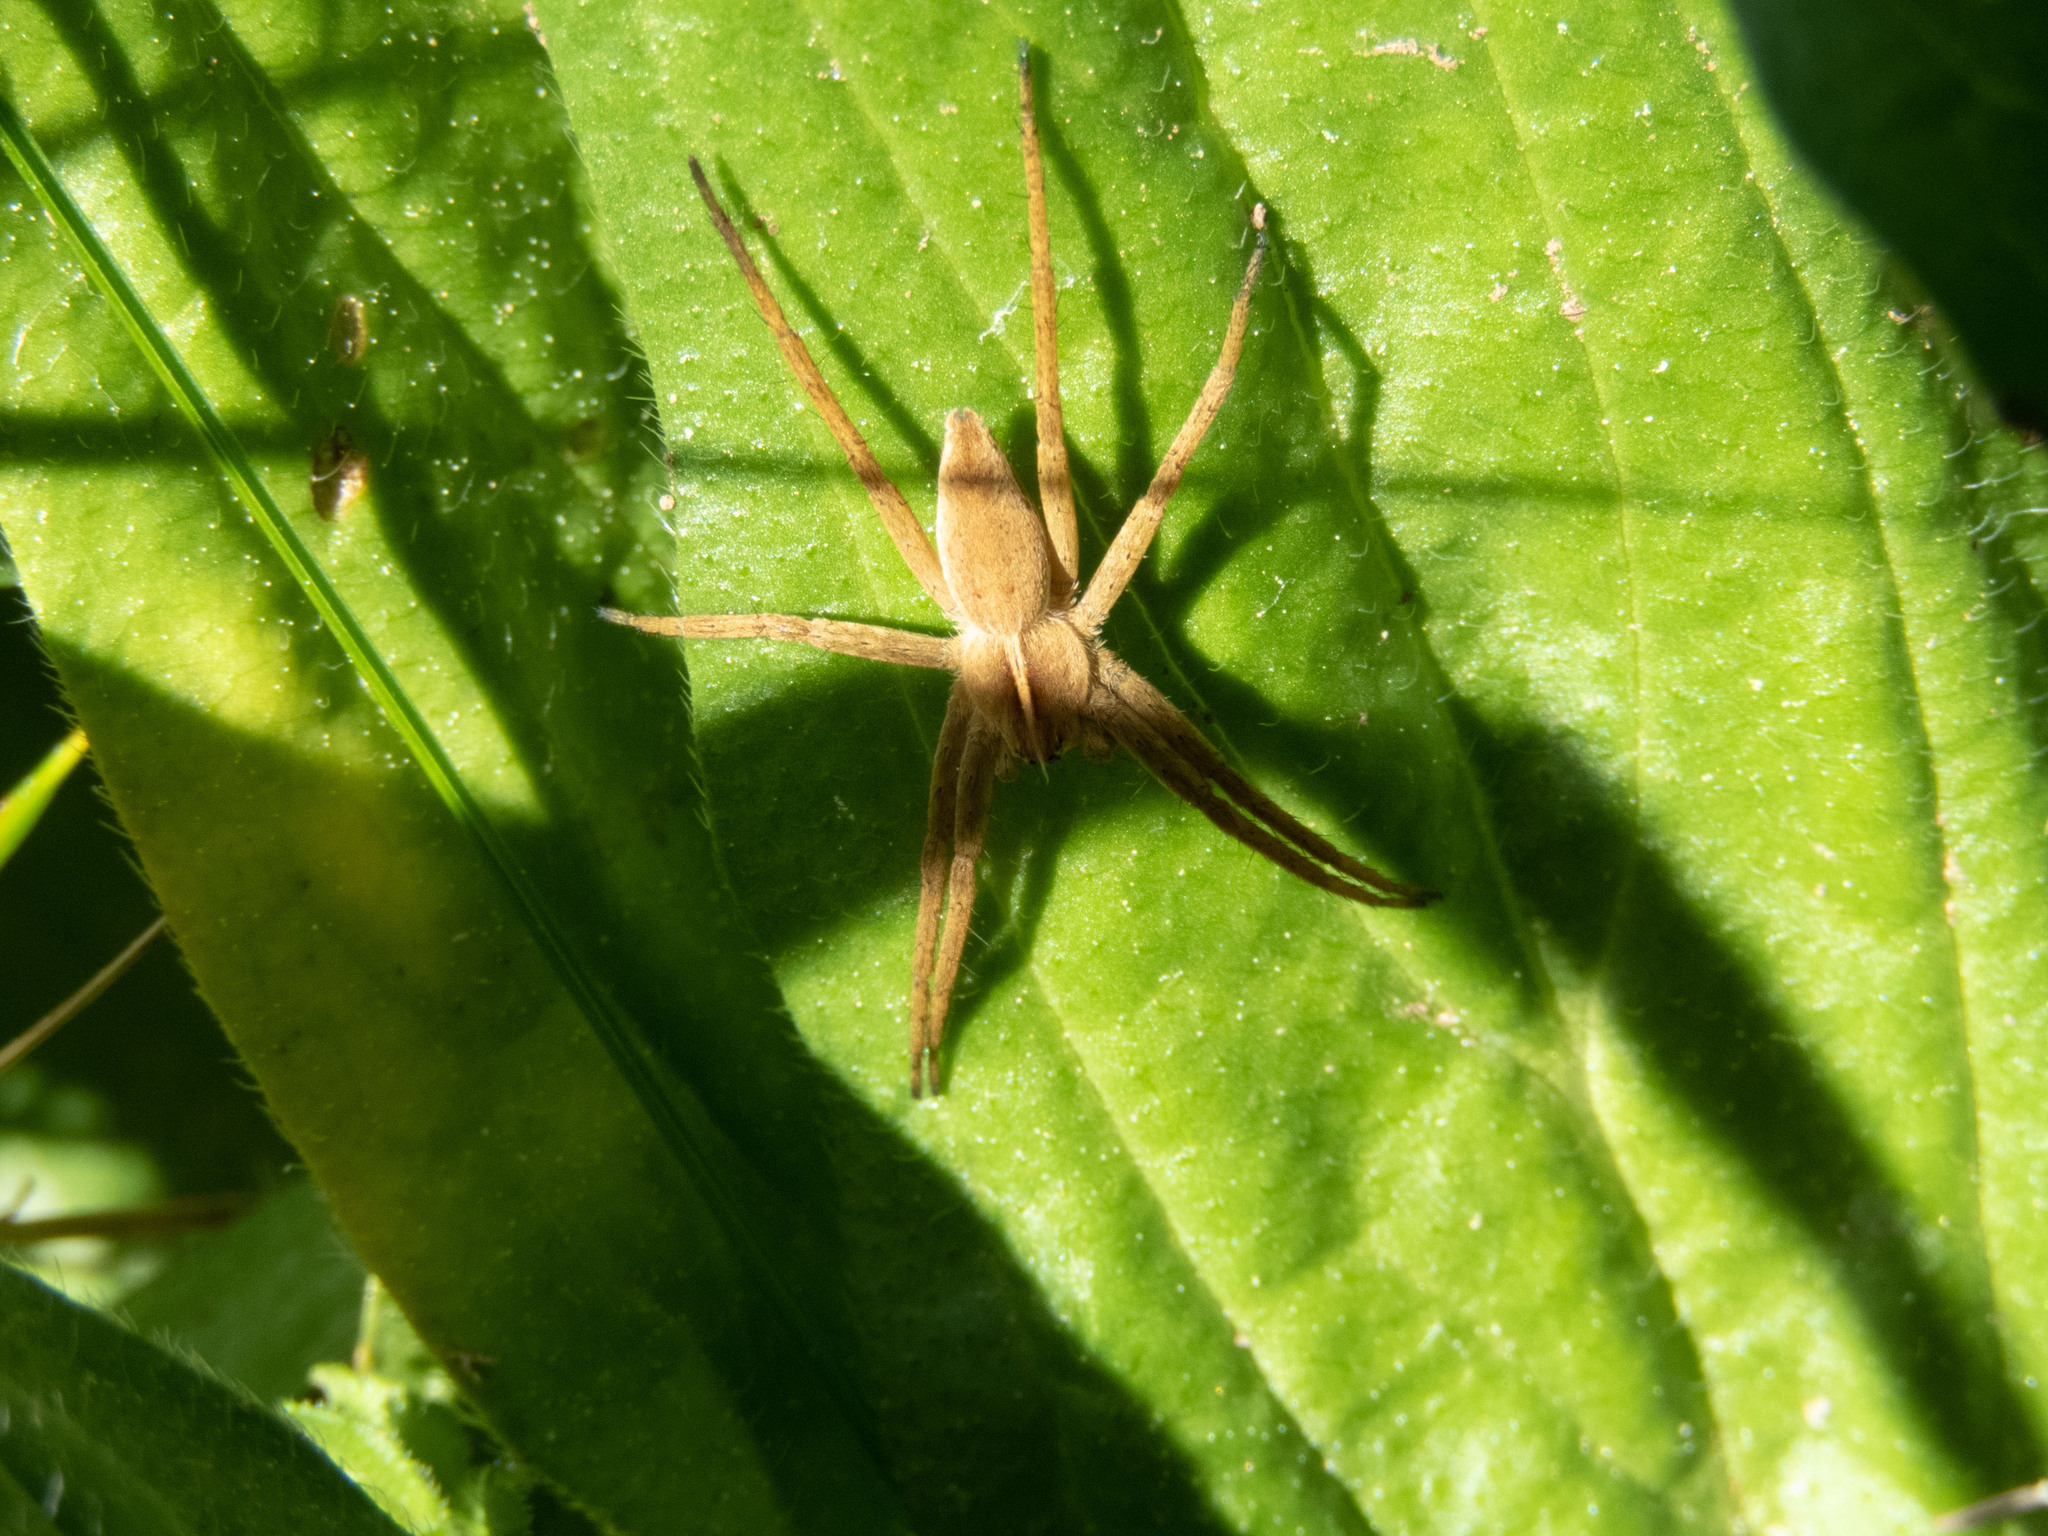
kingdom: Animalia
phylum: Arthropoda
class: Arachnida
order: Araneae
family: Pisauridae
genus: Pisaura
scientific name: Pisaura mirabilis
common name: Tent spider
